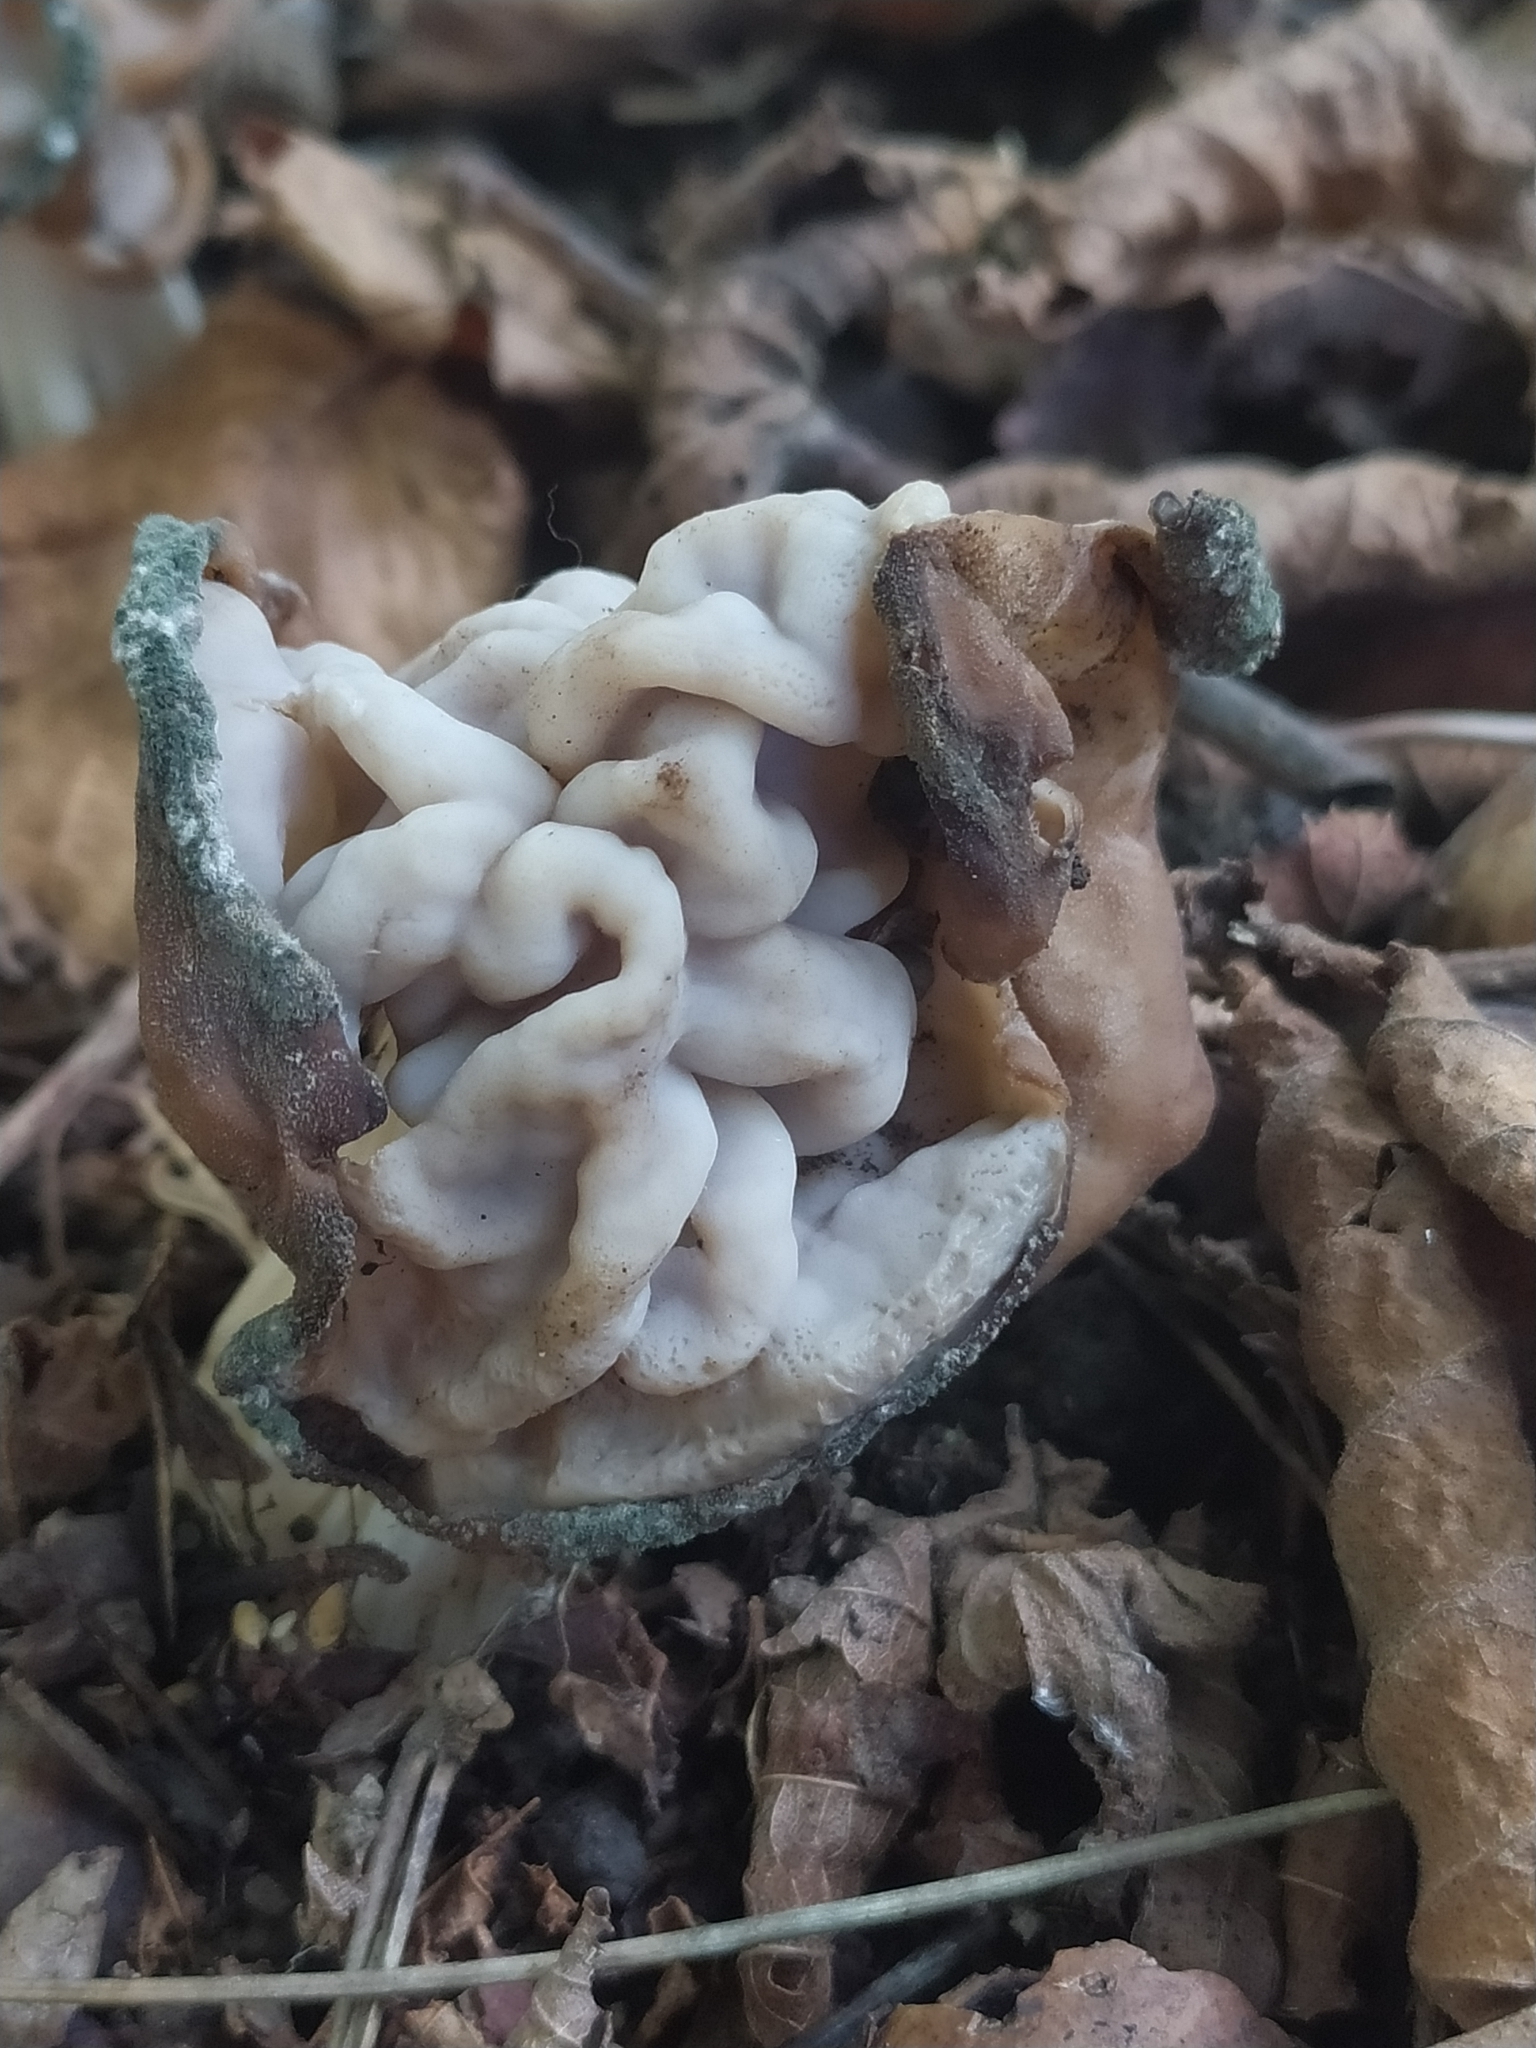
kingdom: Fungi
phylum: Ascomycota
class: Pezizomycetes
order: Pezizales
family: Helvellaceae
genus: Helvella
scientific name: Helvella crispa
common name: White saddle
